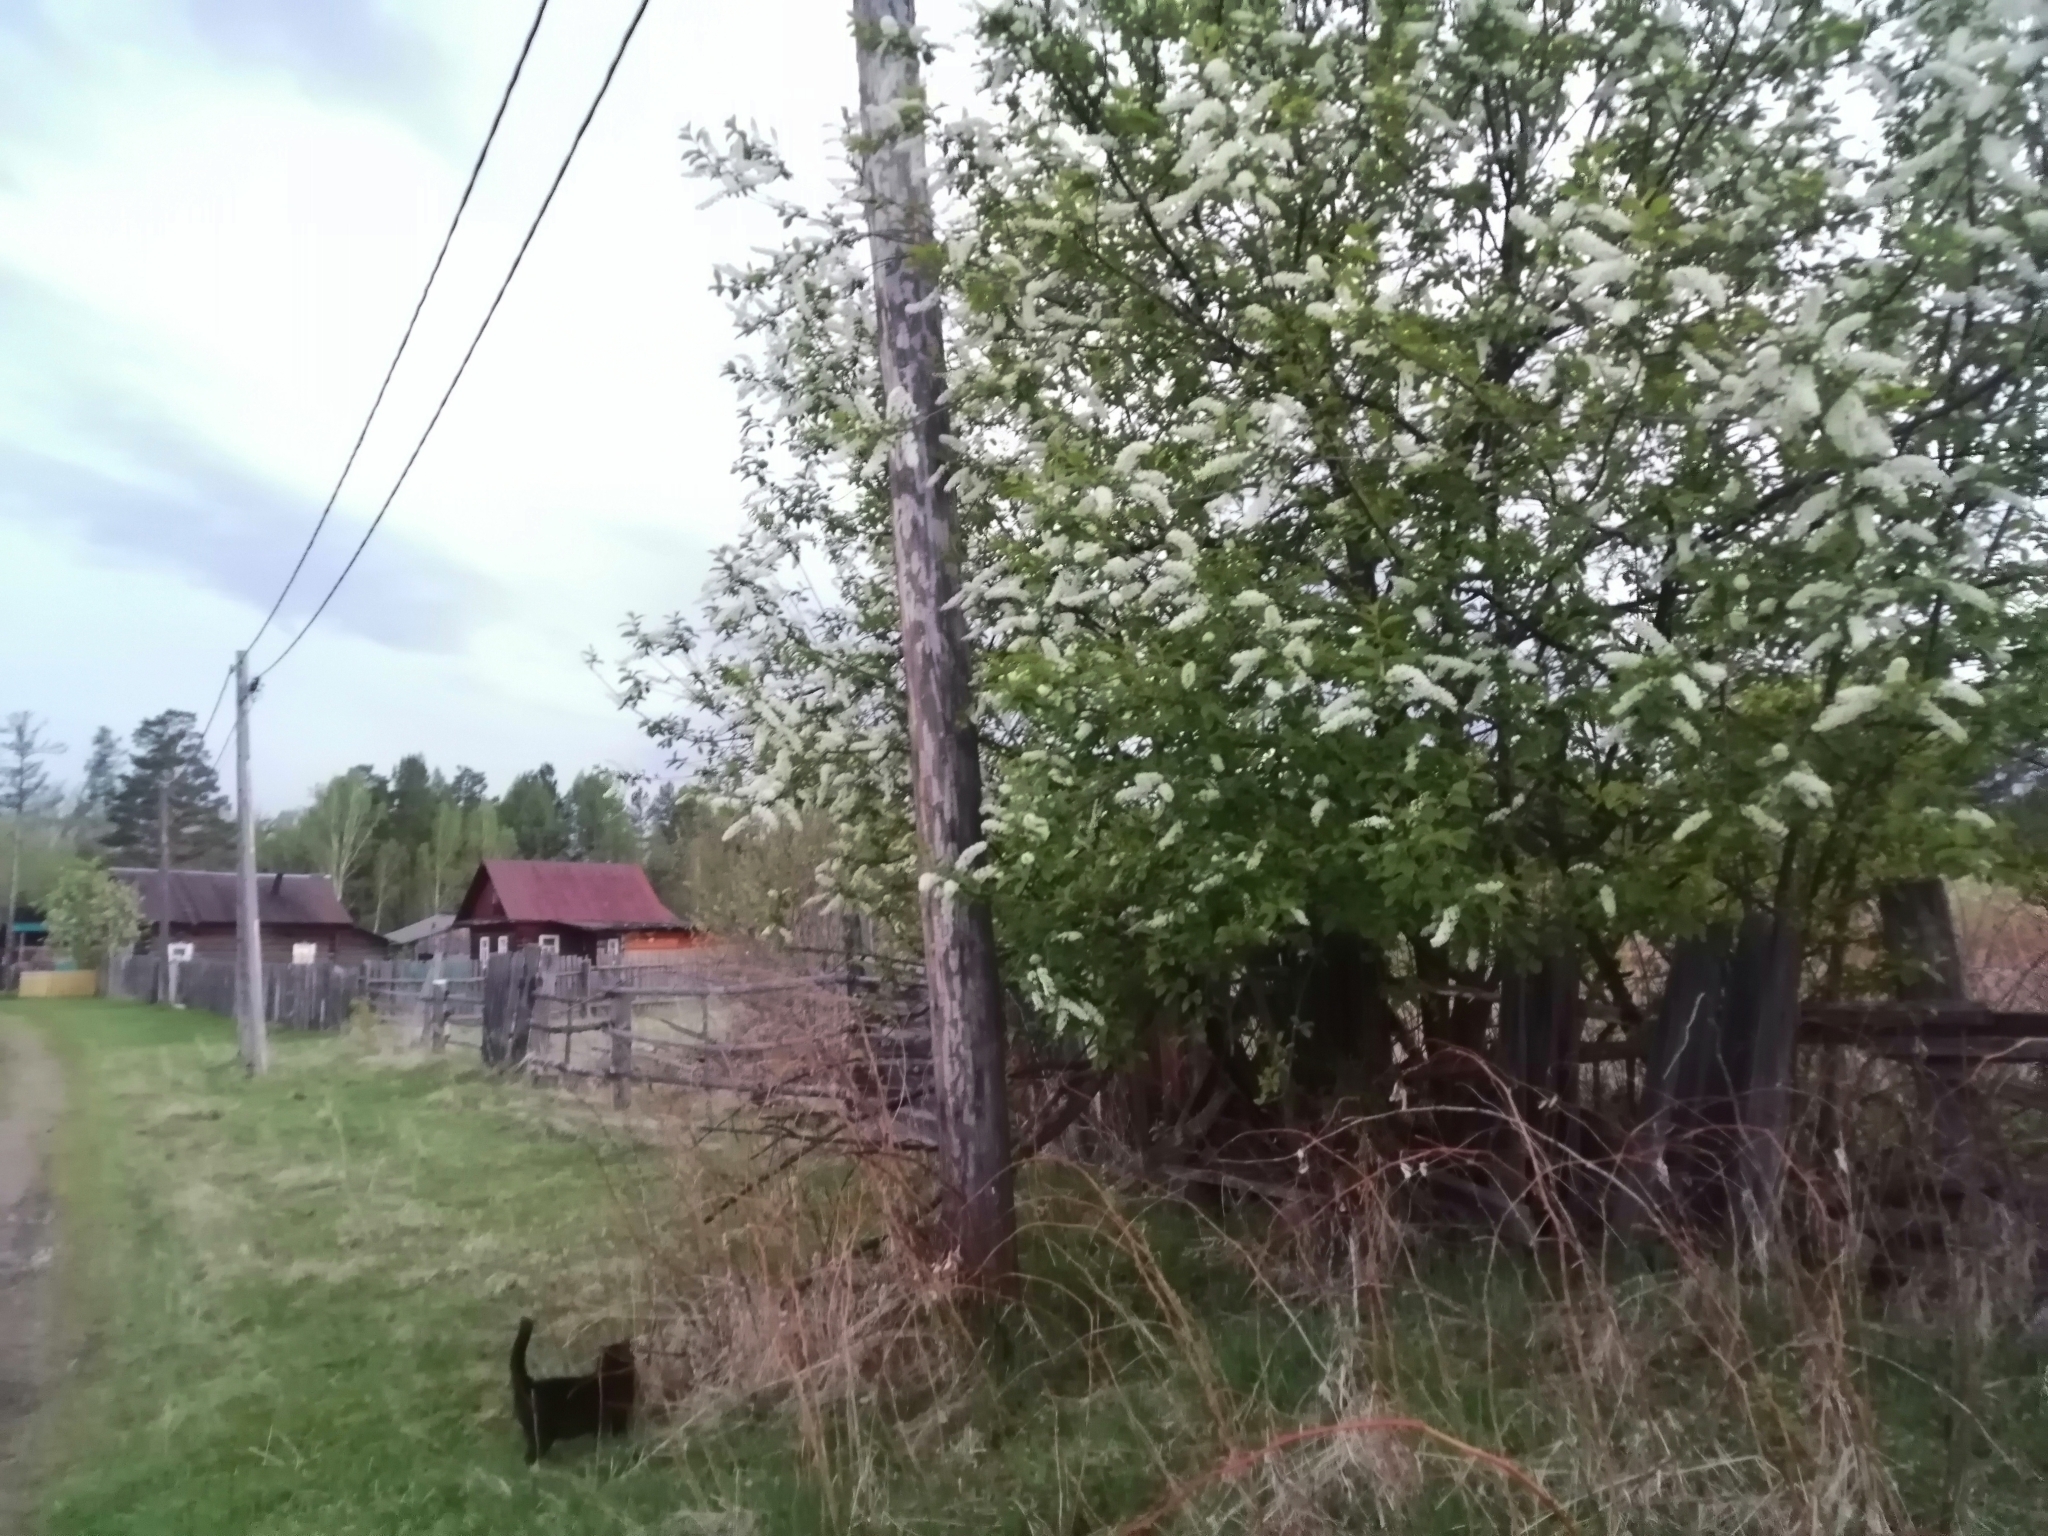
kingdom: Plantae
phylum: Tracheophyta
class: Magnoliopsida
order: Rosales
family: Rosaceae
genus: Prunus
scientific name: Prunus padus
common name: Bird cherry
